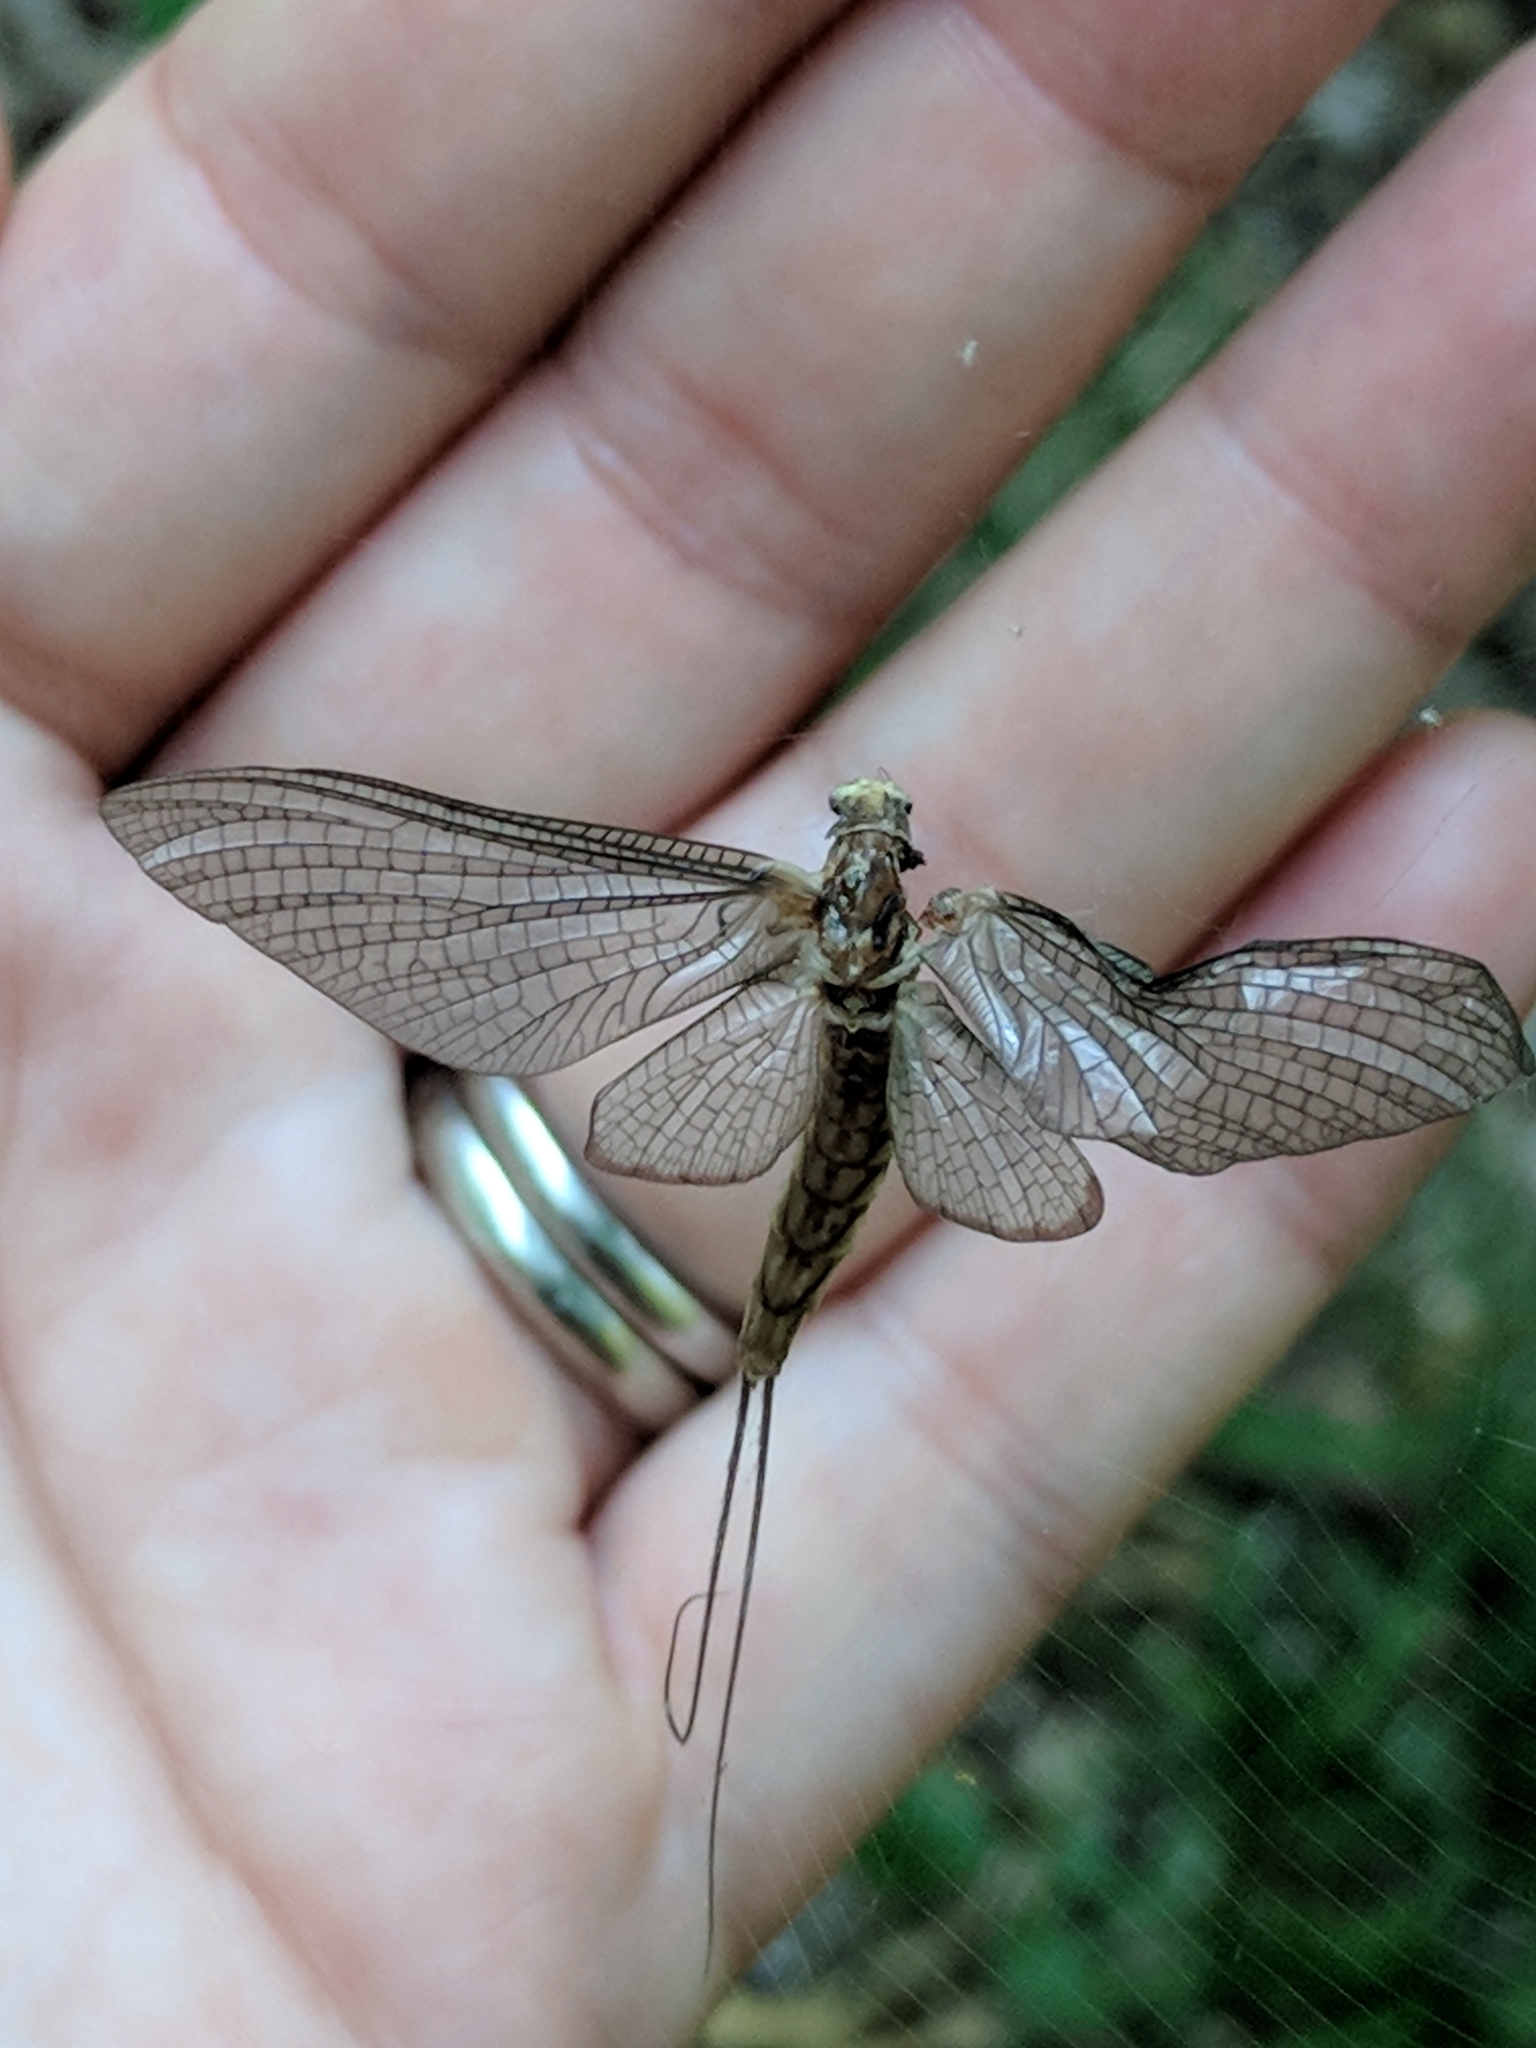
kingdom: Animalia
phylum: Arthropoda
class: Insecta
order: Ephemeroptera
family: Ephemeridae
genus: Hexagenia
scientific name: Hexagenia limbata
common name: Giant mayfly
